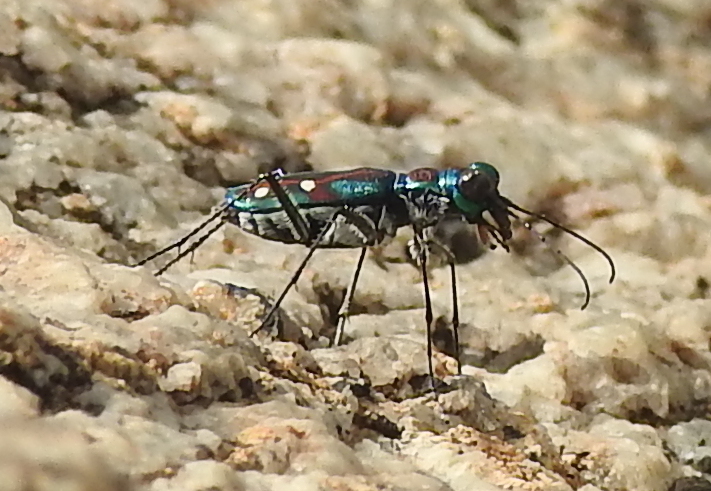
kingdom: Animalia
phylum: Arthropoda
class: Insecta
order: Coleoptera
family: Carabidae
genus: Jansenia
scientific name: Jansenia rugosiceps
